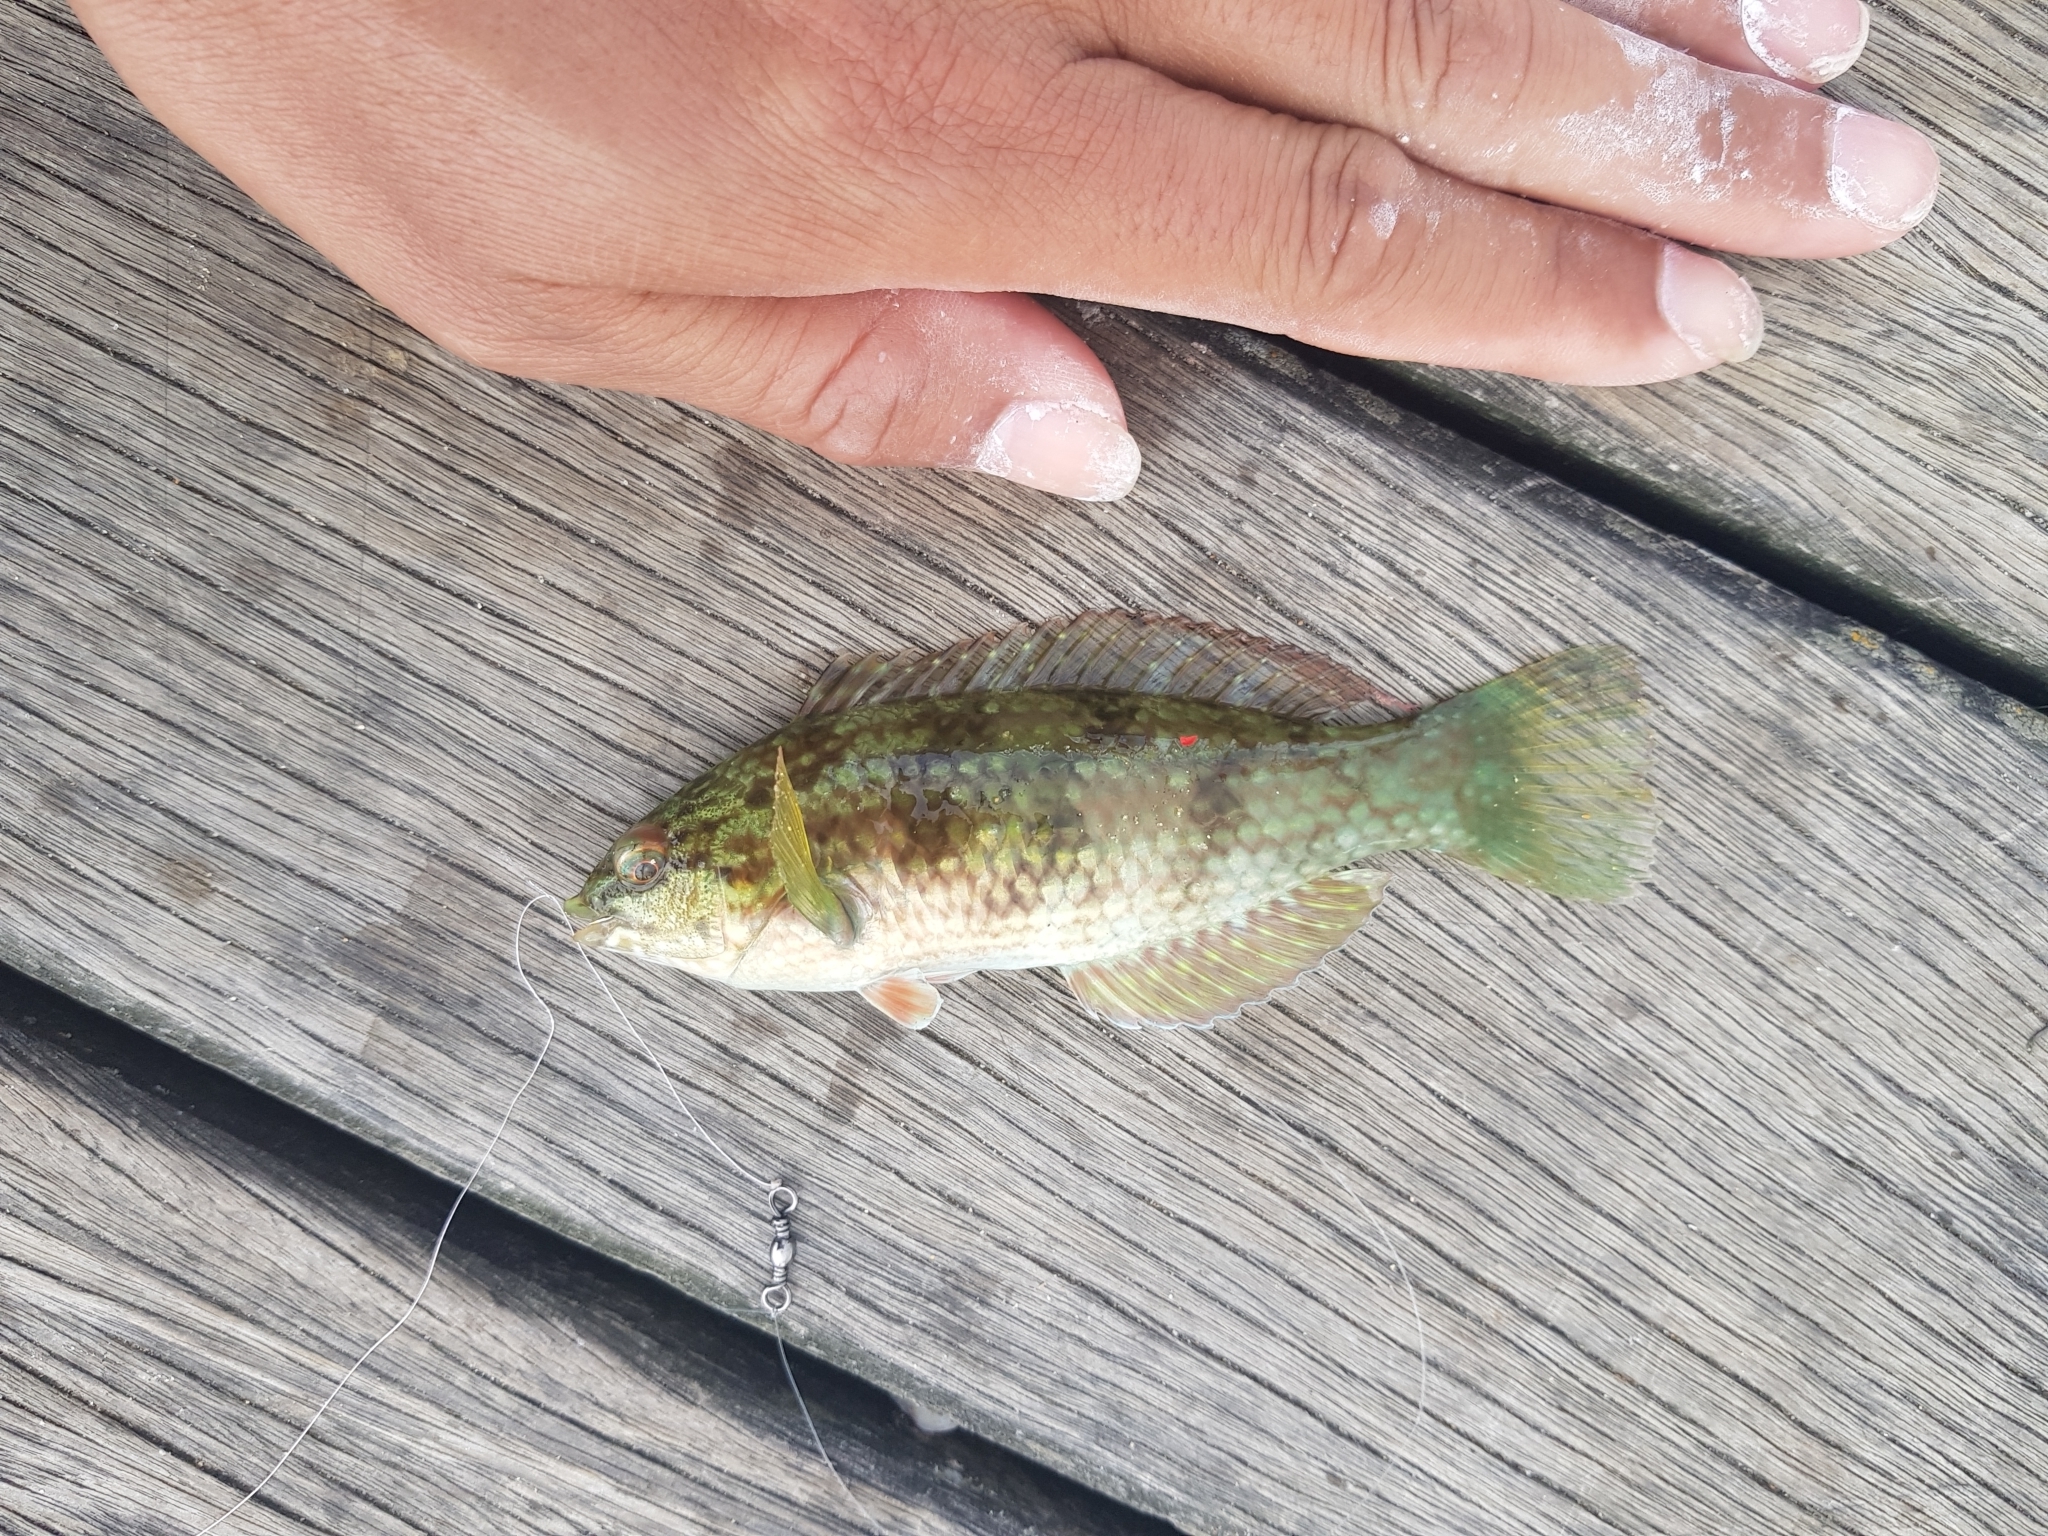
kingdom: Animalia
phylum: Chordata
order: Perciformes
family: Labridae
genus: Notolabrus
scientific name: Notolabrus tetricus
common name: Blue-throated parrotfish
